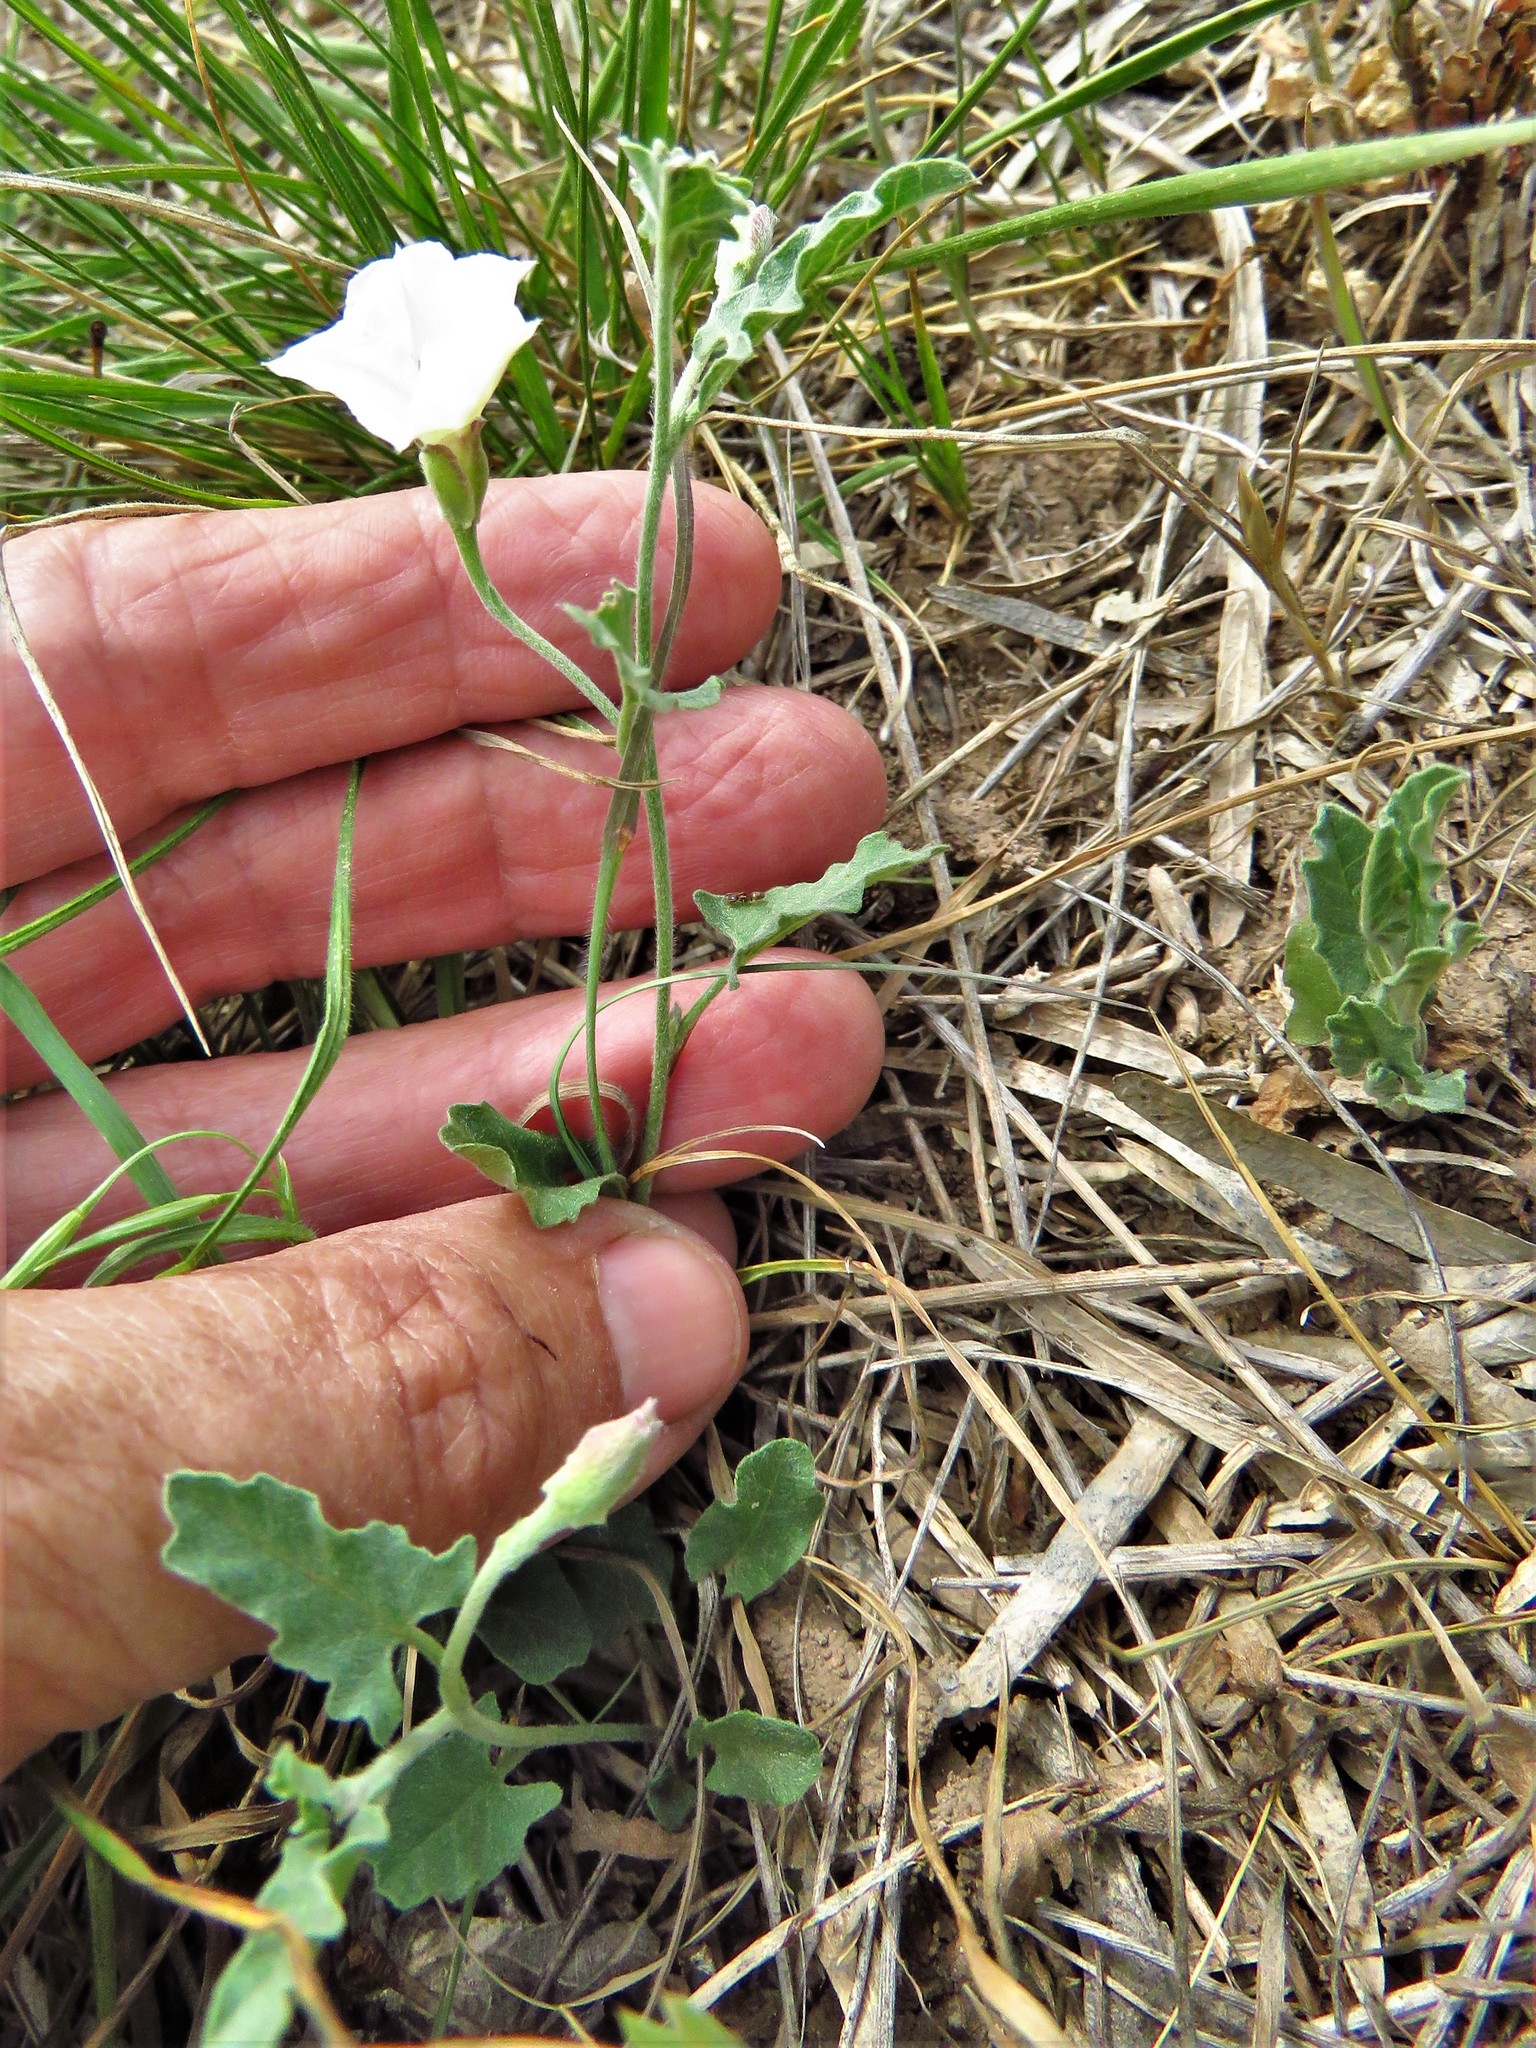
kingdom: Plantae
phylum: Tracheophyta
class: Magnoliopsida
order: Solanales
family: Convolvulaceae
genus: Convolvulus
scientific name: Convolvulus equitans
